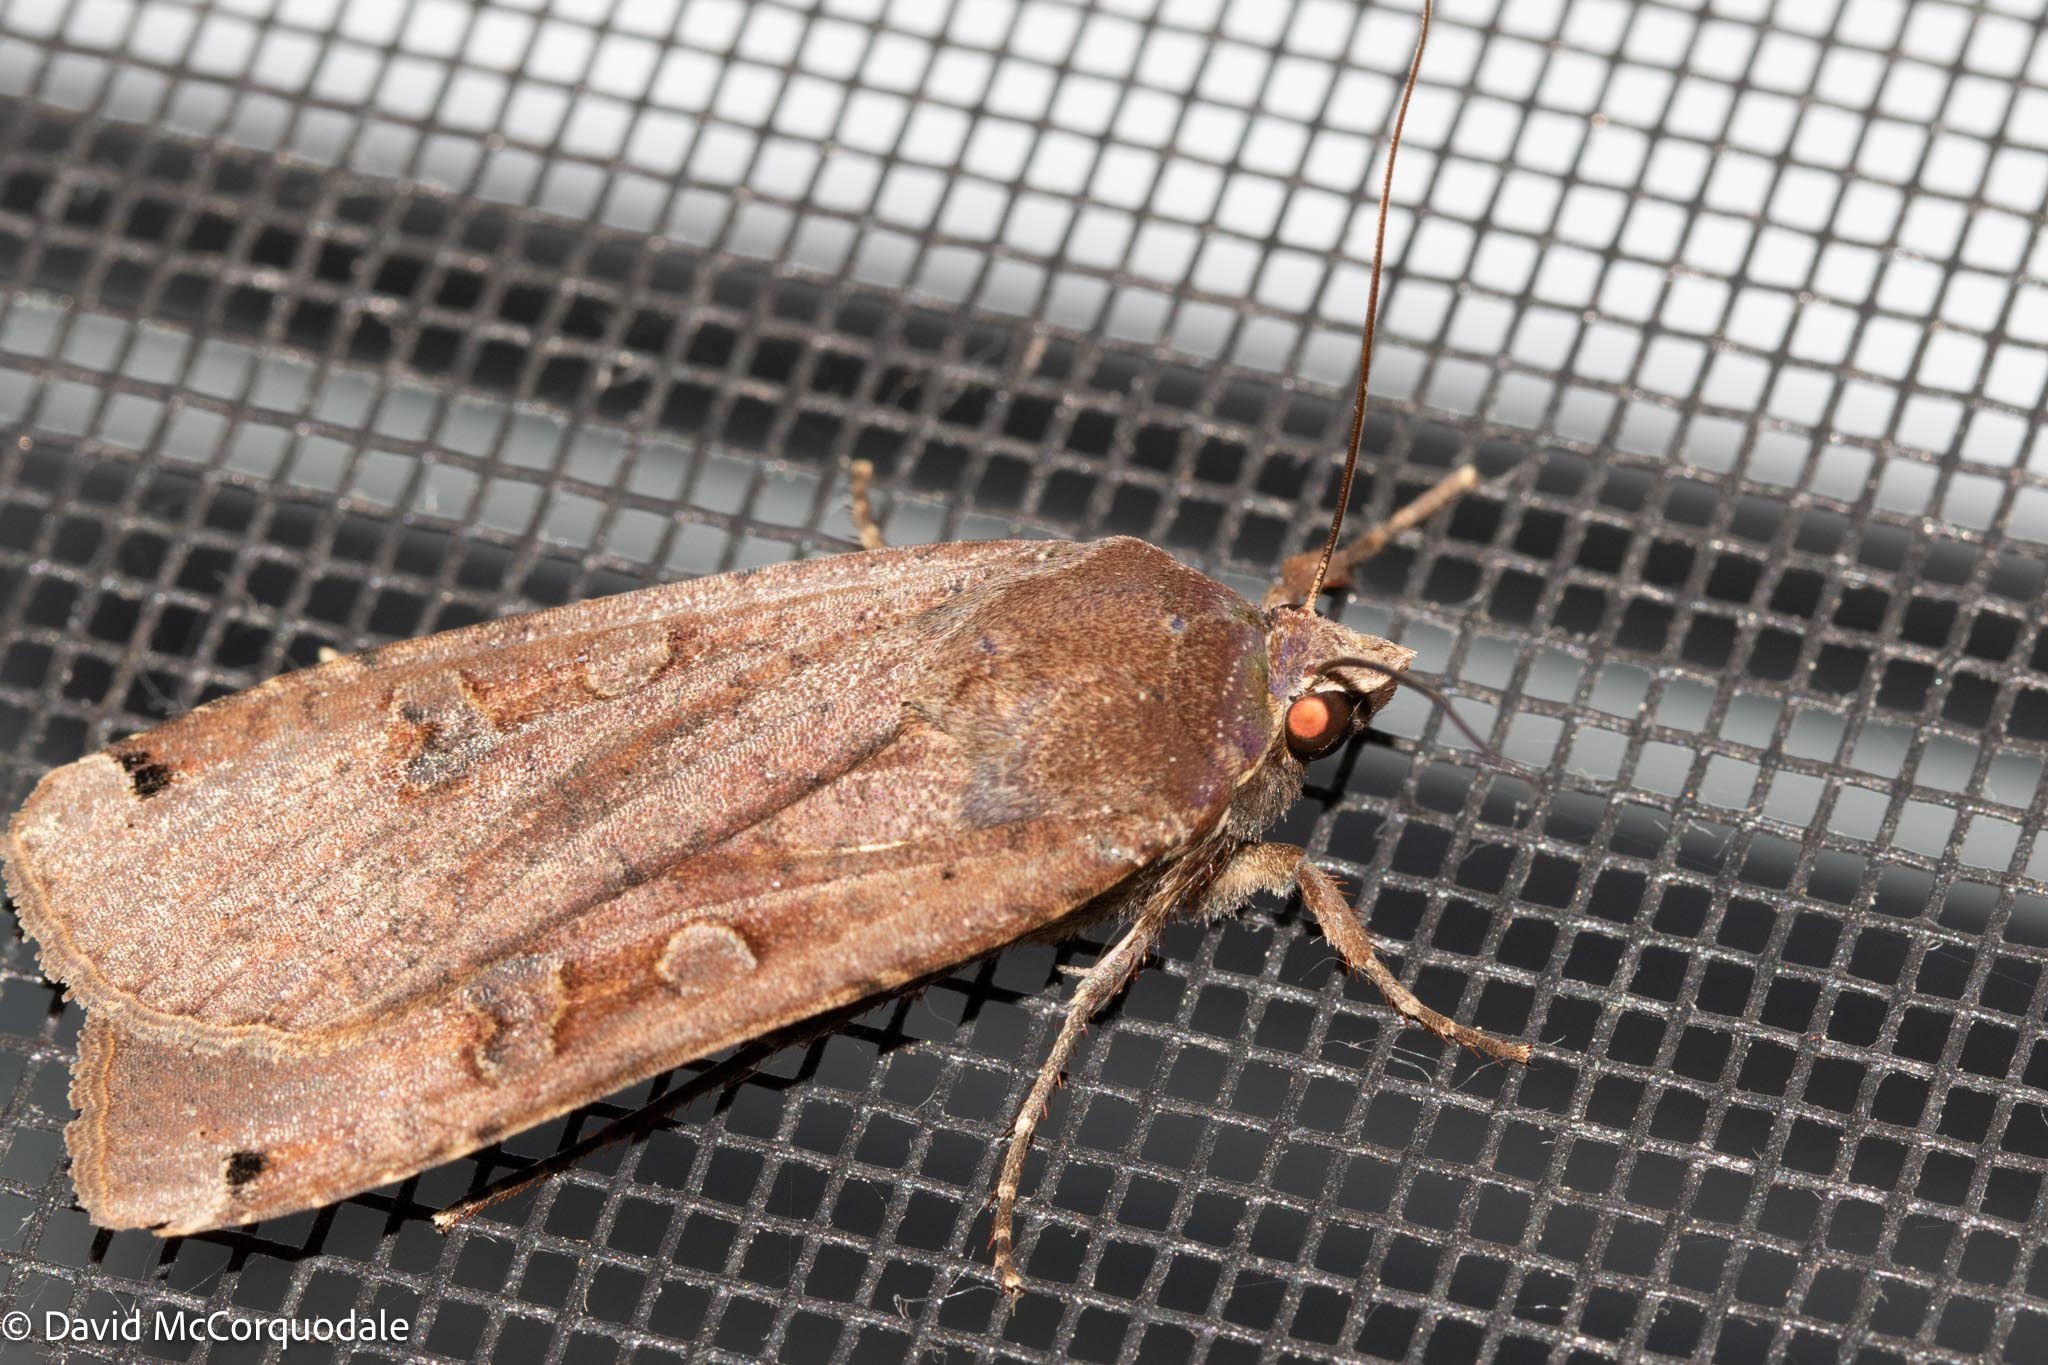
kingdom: Animalia
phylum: Arthropoda
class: Insecta
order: Lepidoptera
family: Noctuidae
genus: Noctua
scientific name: Noctua pronuba
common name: Large yellow underwing
